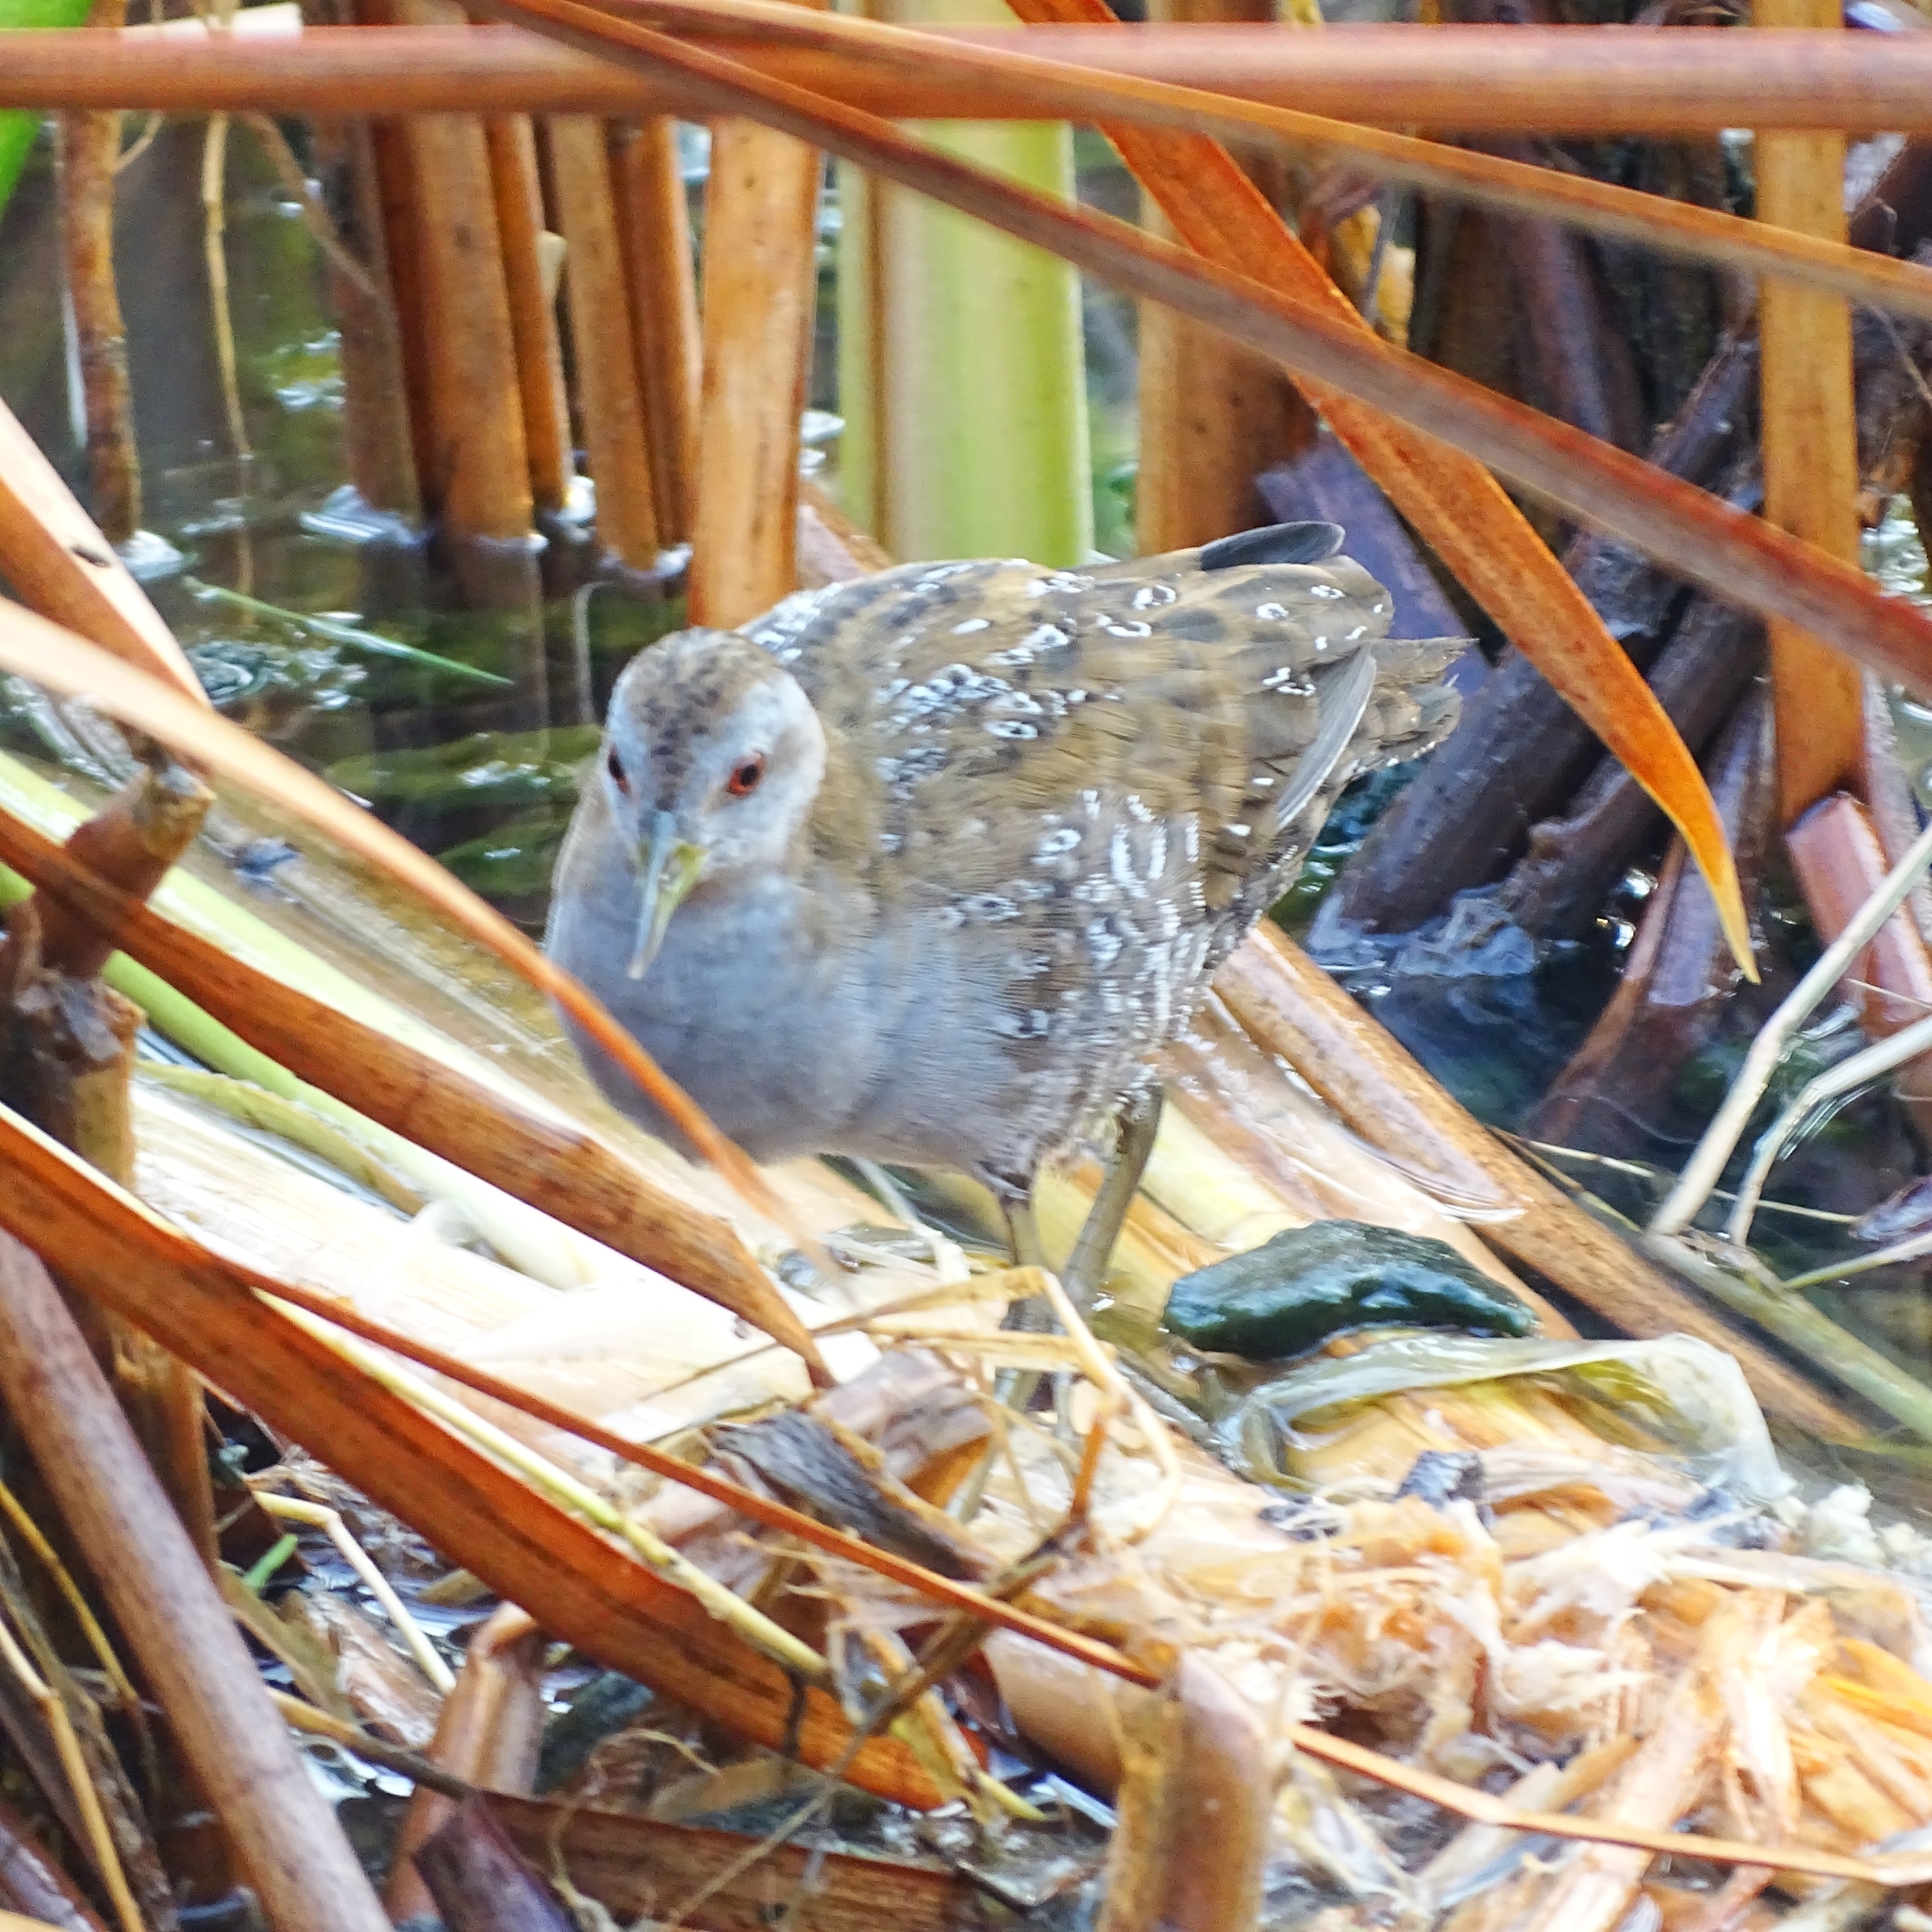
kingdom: Animalia
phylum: Chordata
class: Aves
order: Gruiformes
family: Rallidae
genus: Porzana
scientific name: Porzana pusilla
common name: Baillon's crake
